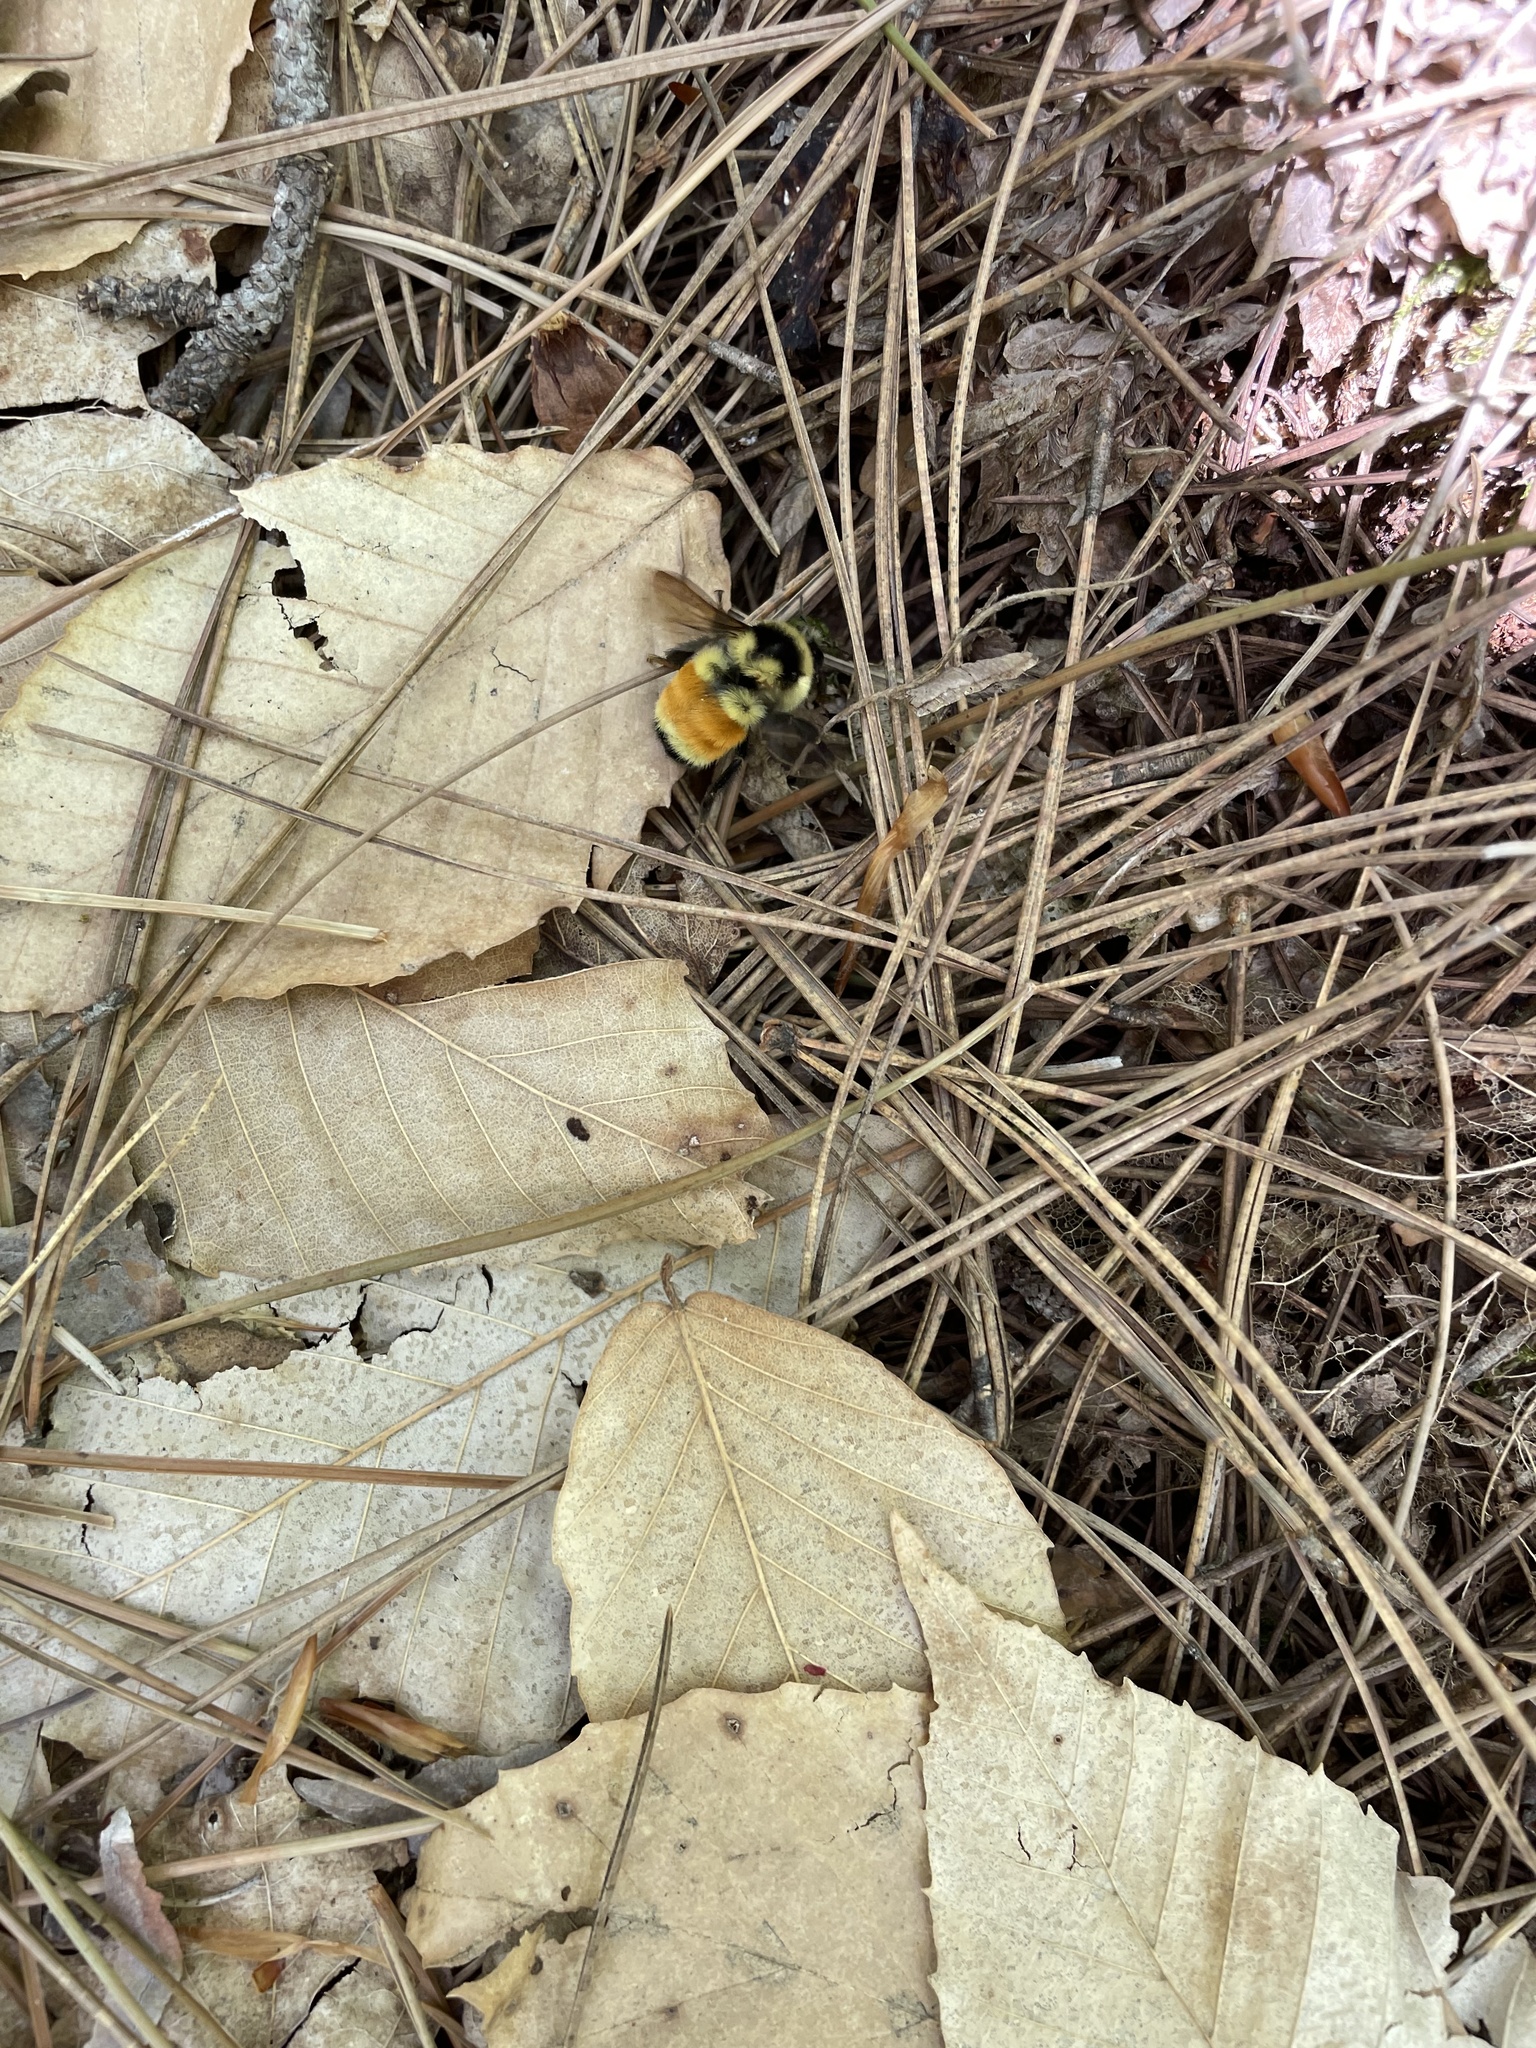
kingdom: Animalia
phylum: Arthropoda
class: Insecta
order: Hymenoptera
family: Apidae
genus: Bombus
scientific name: Bombus ternarius
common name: Tri-colored bumble bee
